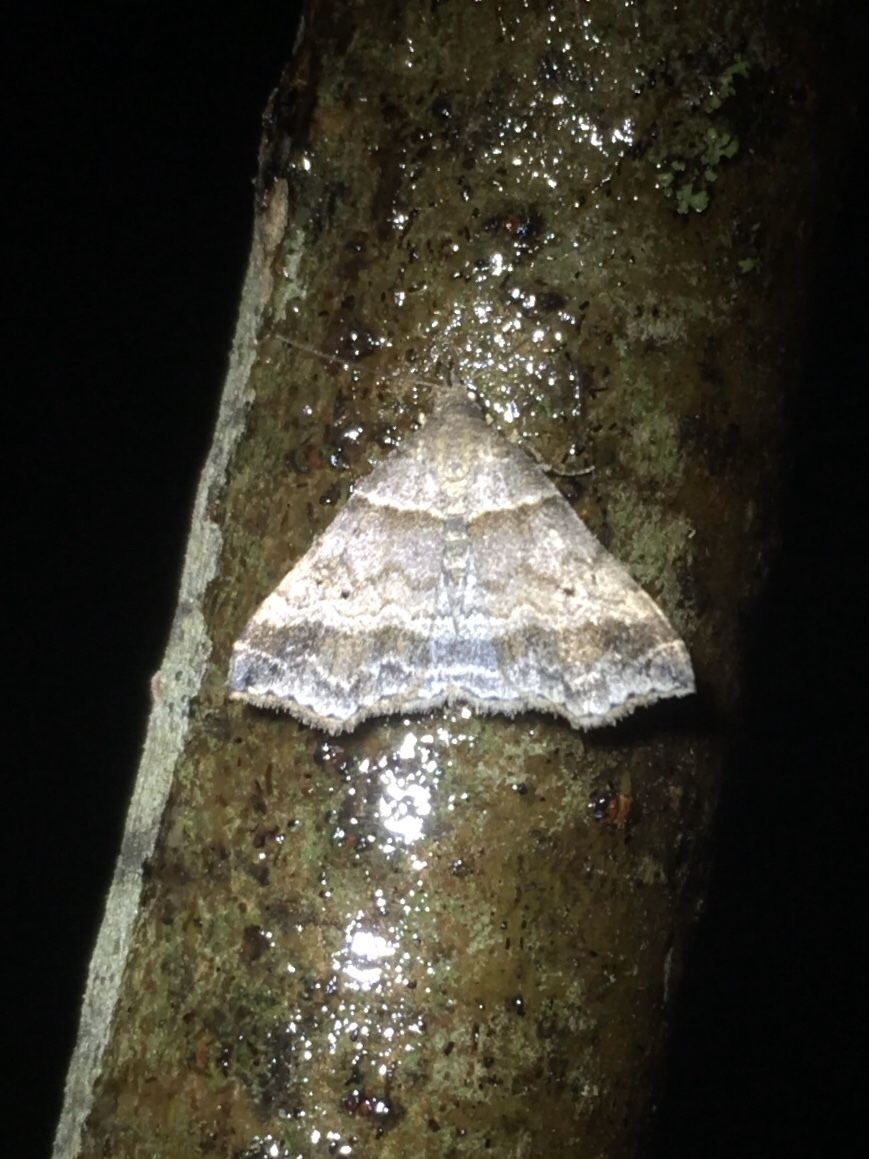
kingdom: Animalia
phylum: Arthropoda
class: Insecta
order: Lepidoptera
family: Erebidae
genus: Phaeolita
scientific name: Phaeolita pyramusalis
